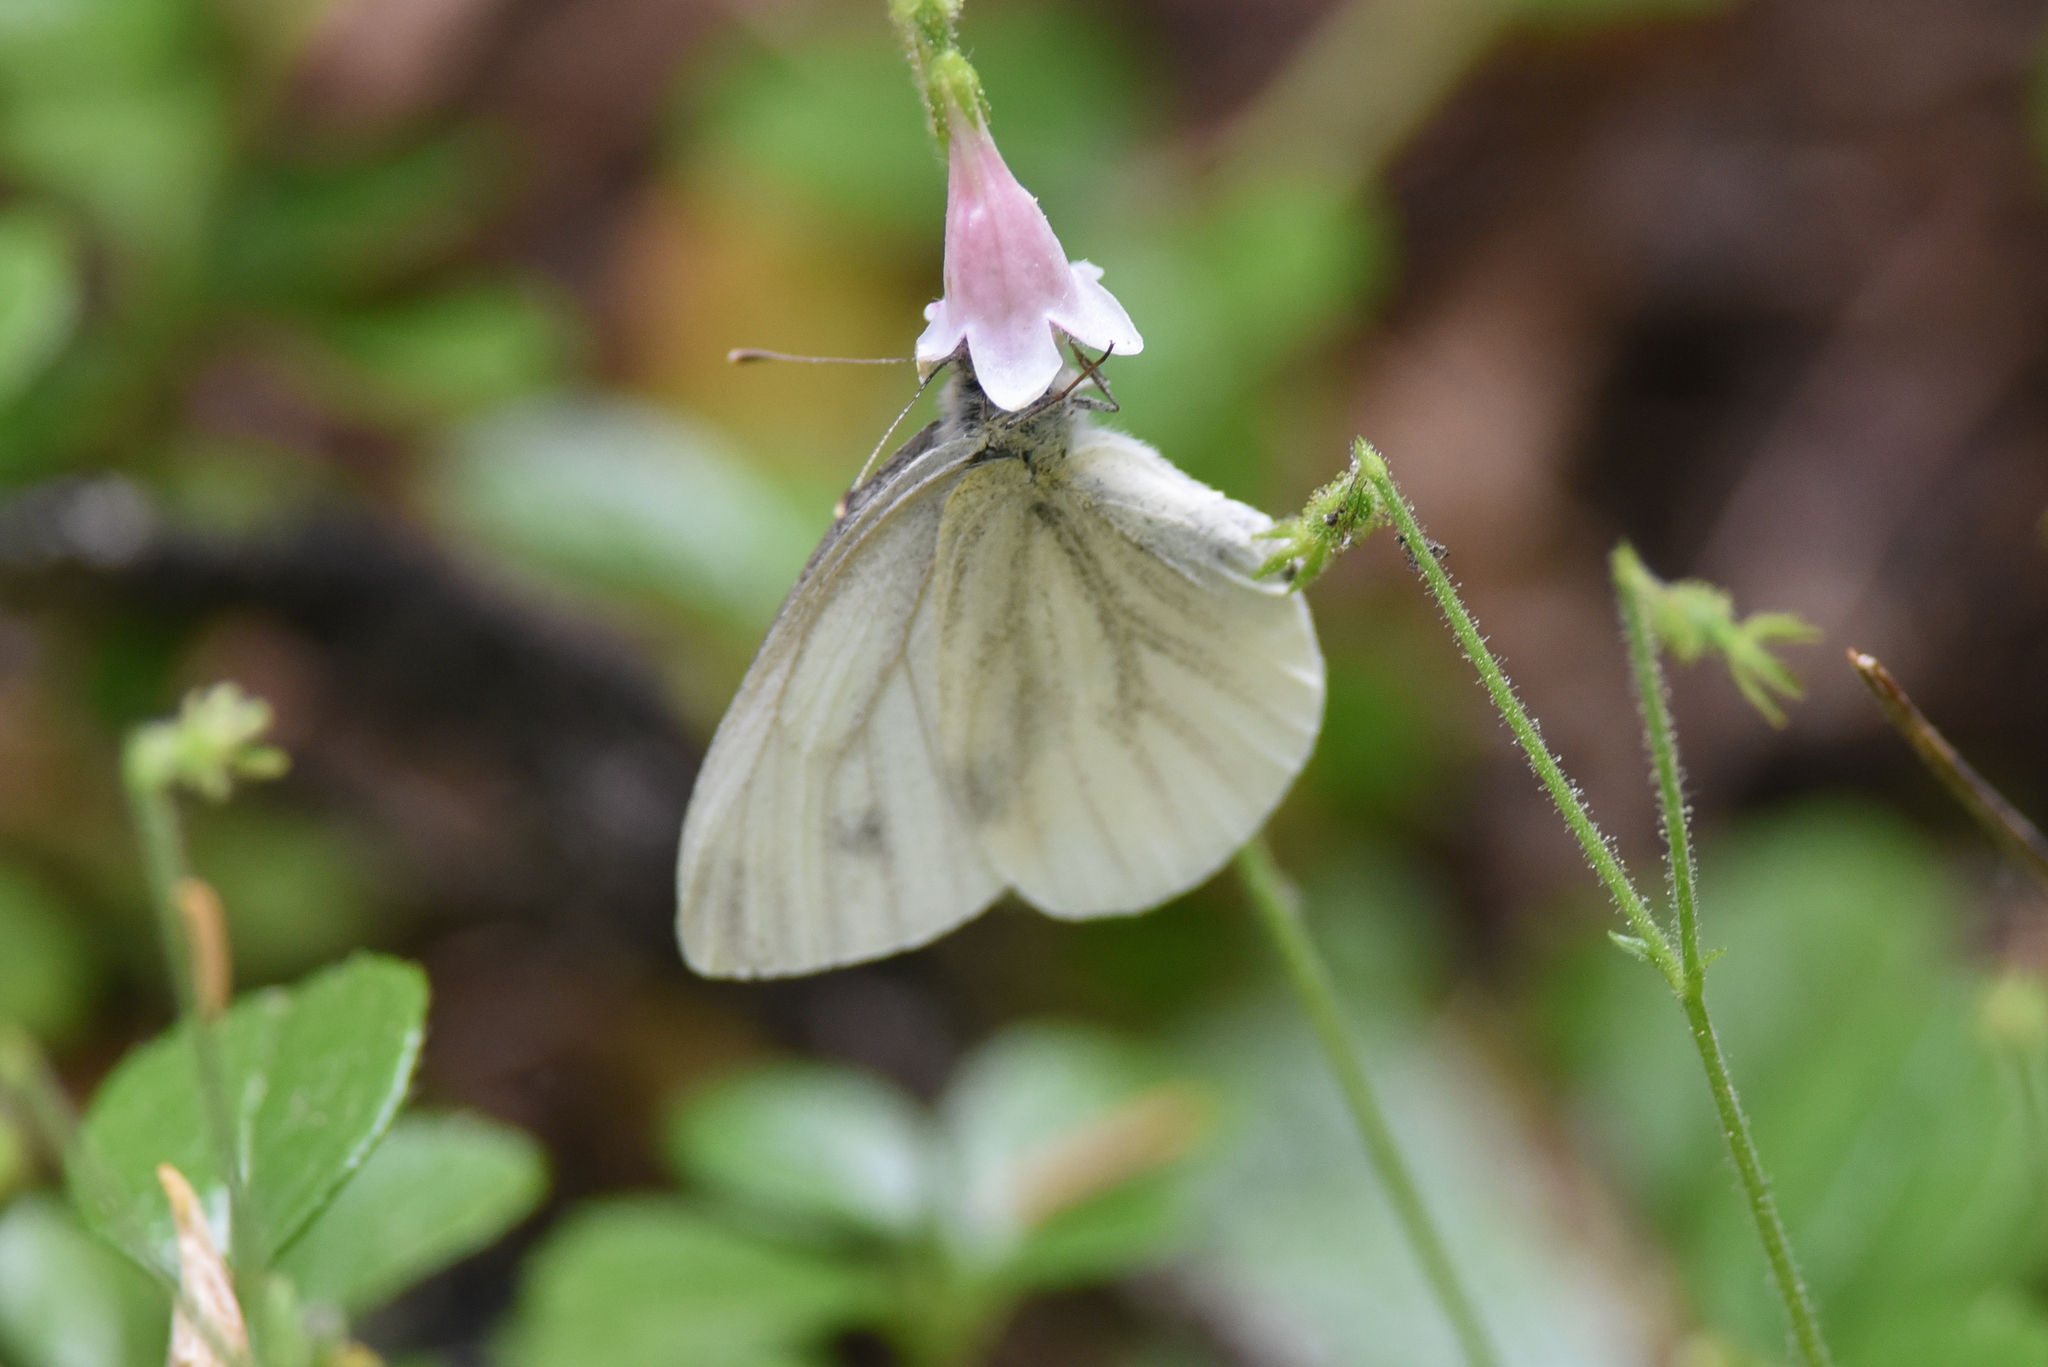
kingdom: Animalia
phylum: Arthropoda
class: Insecta
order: Lepidoptera
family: Pieridae
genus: Pieris
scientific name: Pieris marginalis
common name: Margined white
